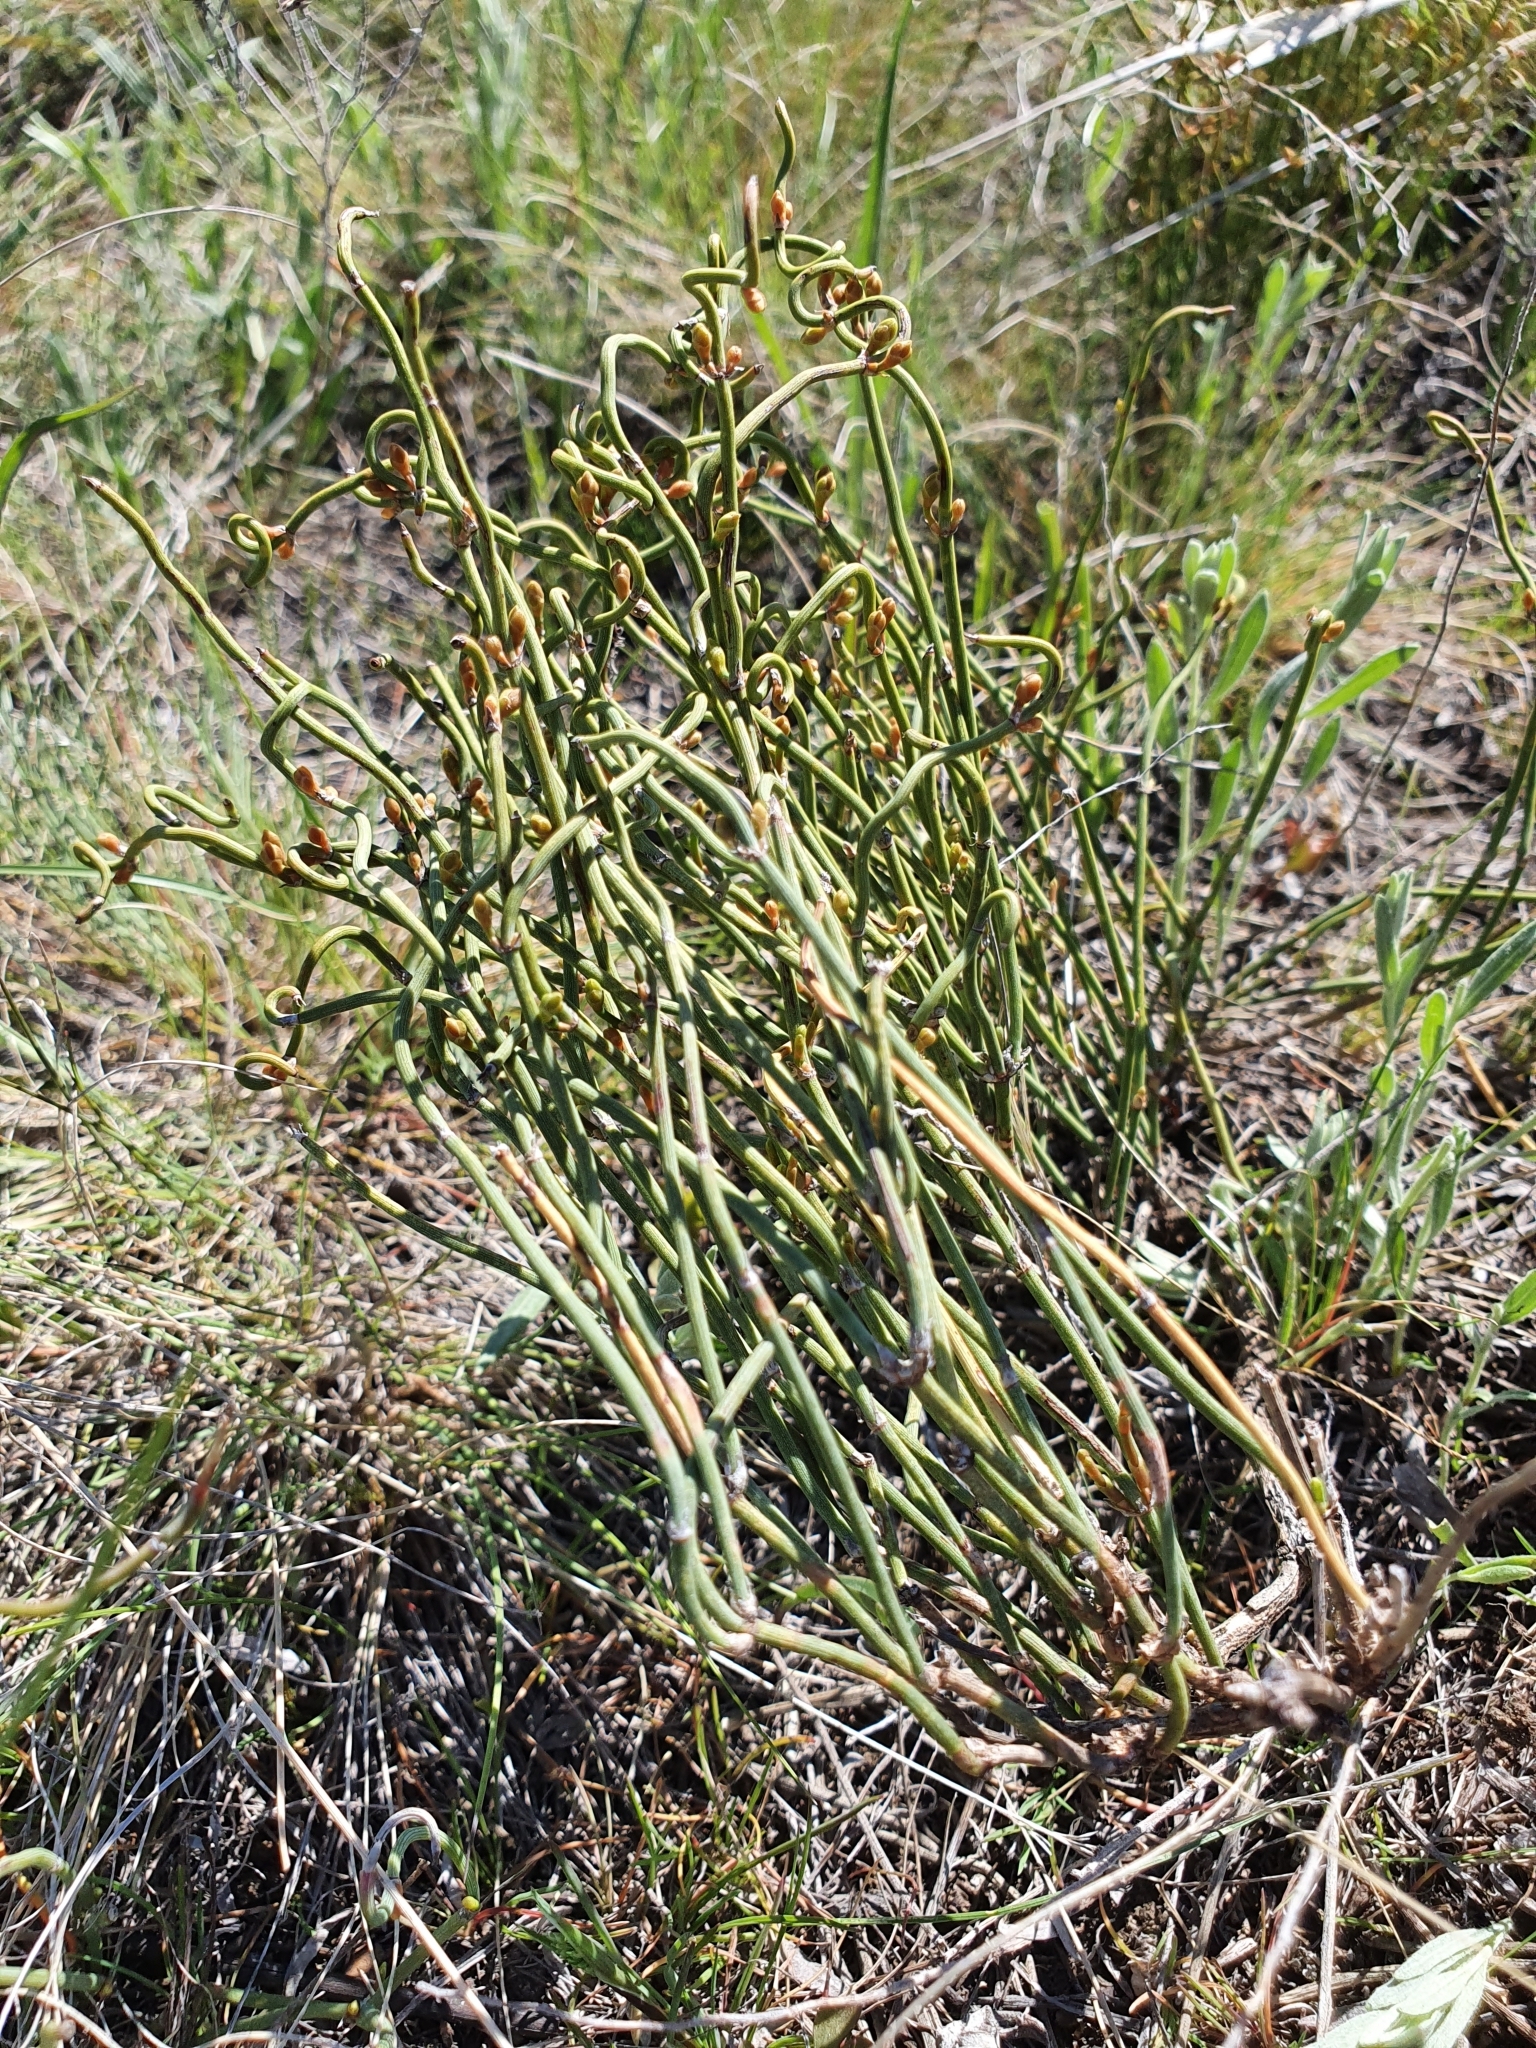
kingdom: Plantae
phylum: Tracheophyta
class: Gnetopsida
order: Ephedrales
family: Ephedraceae
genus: Ephedra
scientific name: Ephedra distachya
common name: Sea grape
